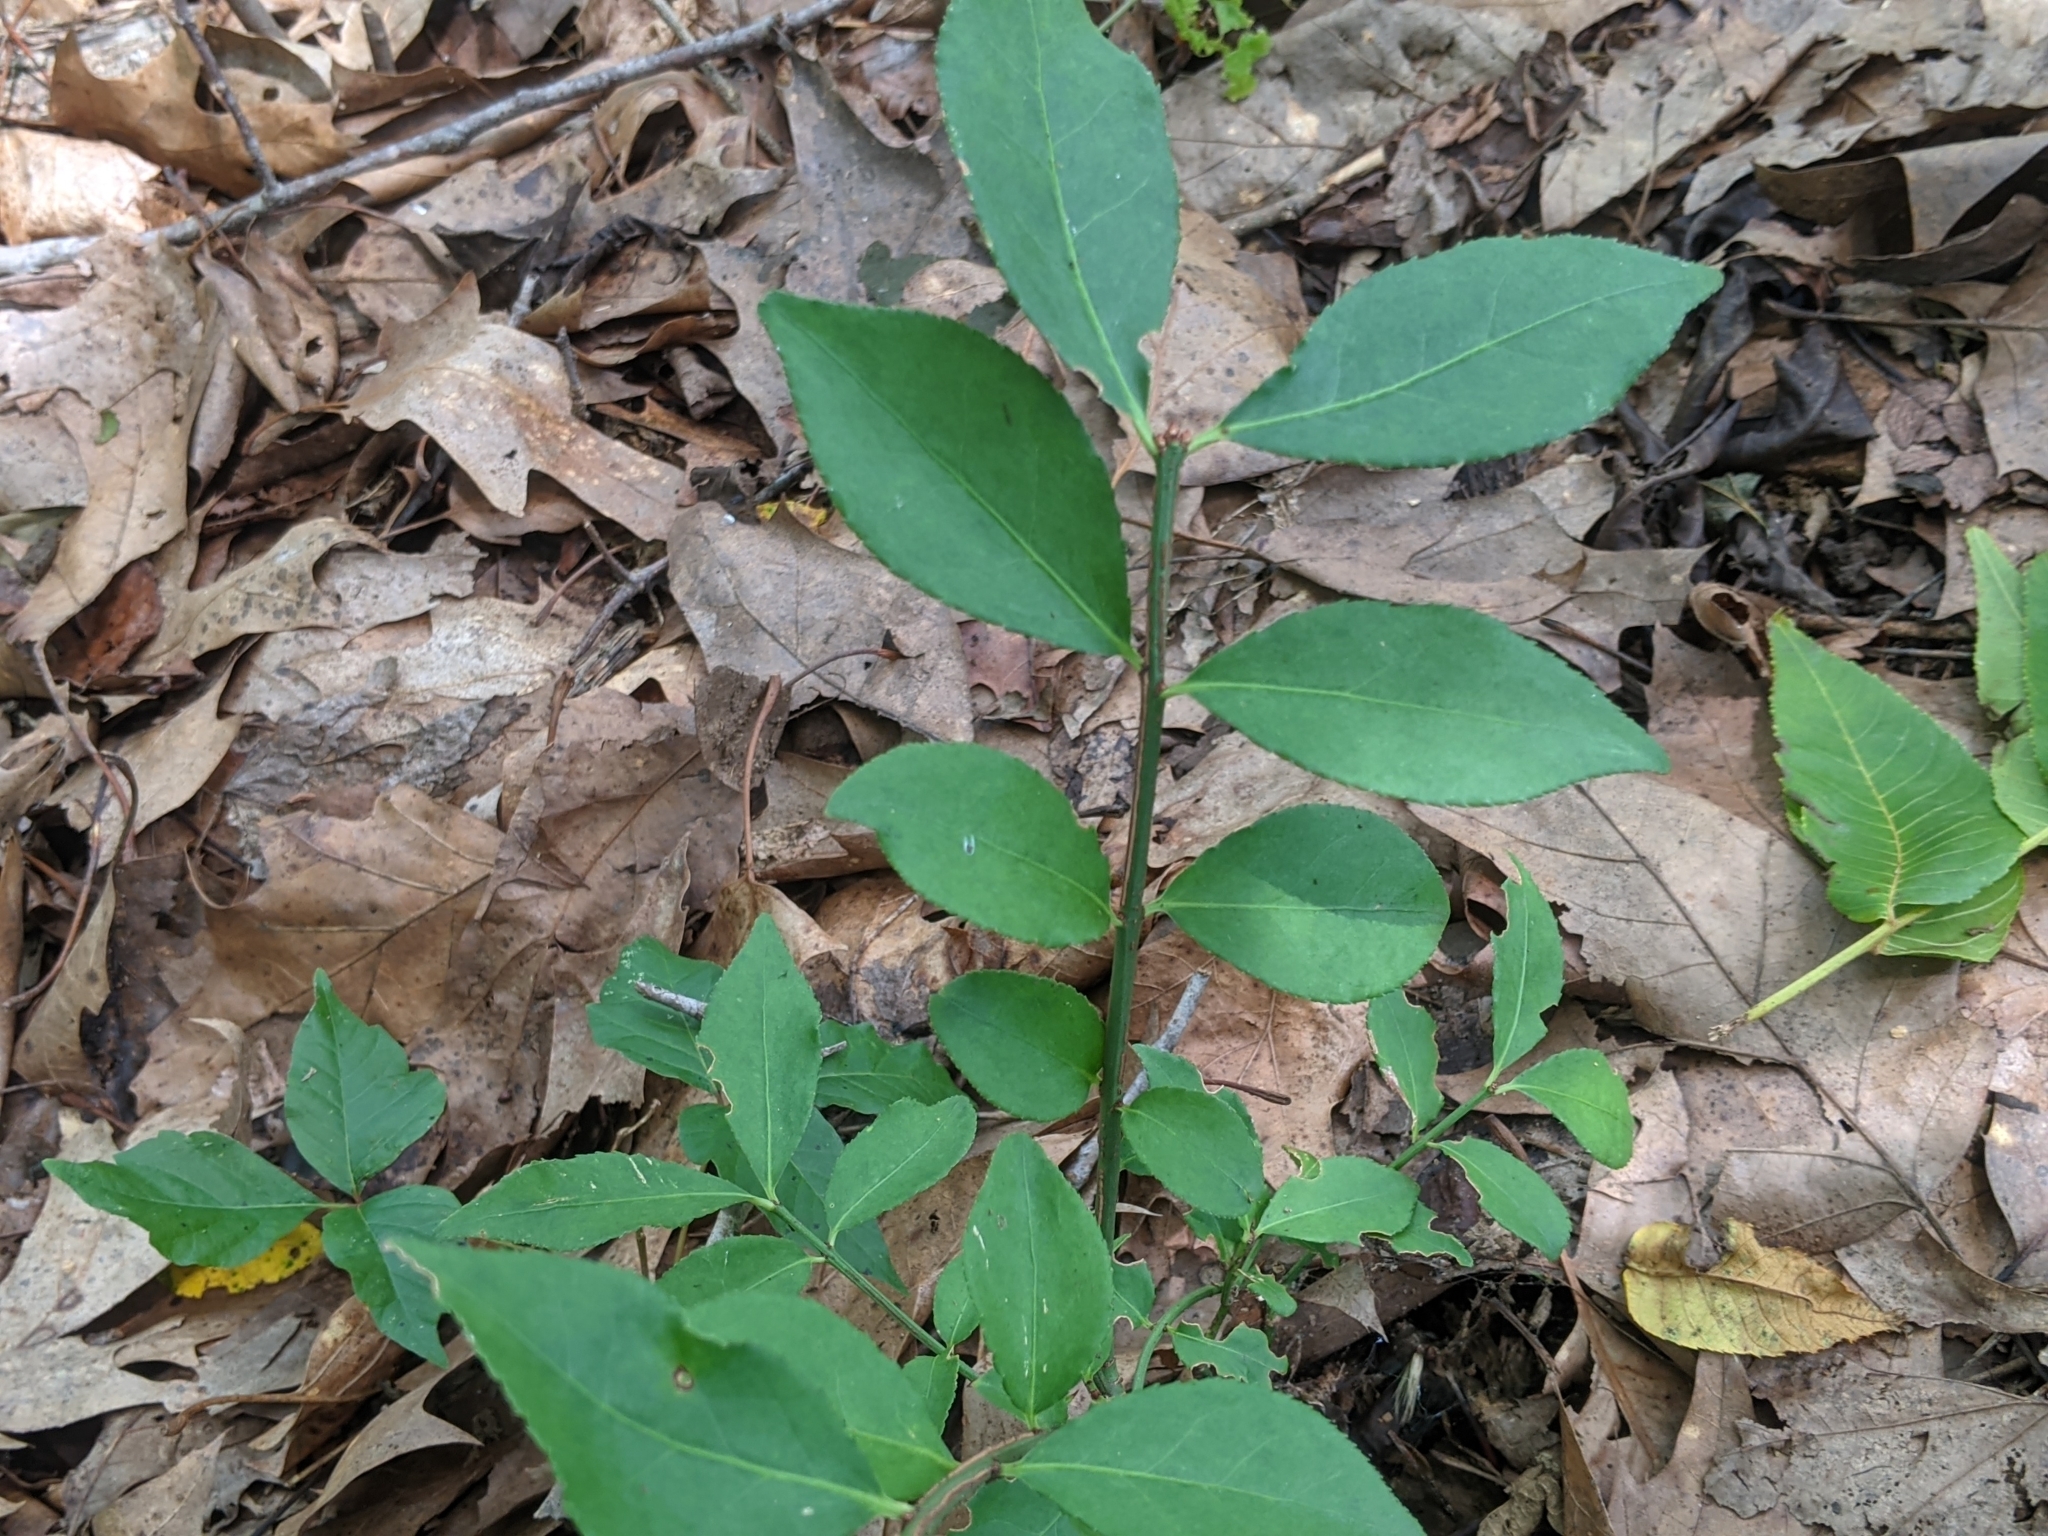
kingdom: Plantae
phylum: Tracheophyta
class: Magnoliopsida
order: Celastrales
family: Celastraceae
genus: Euonymus
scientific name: Euonymus alatus
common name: Winged euonymus
